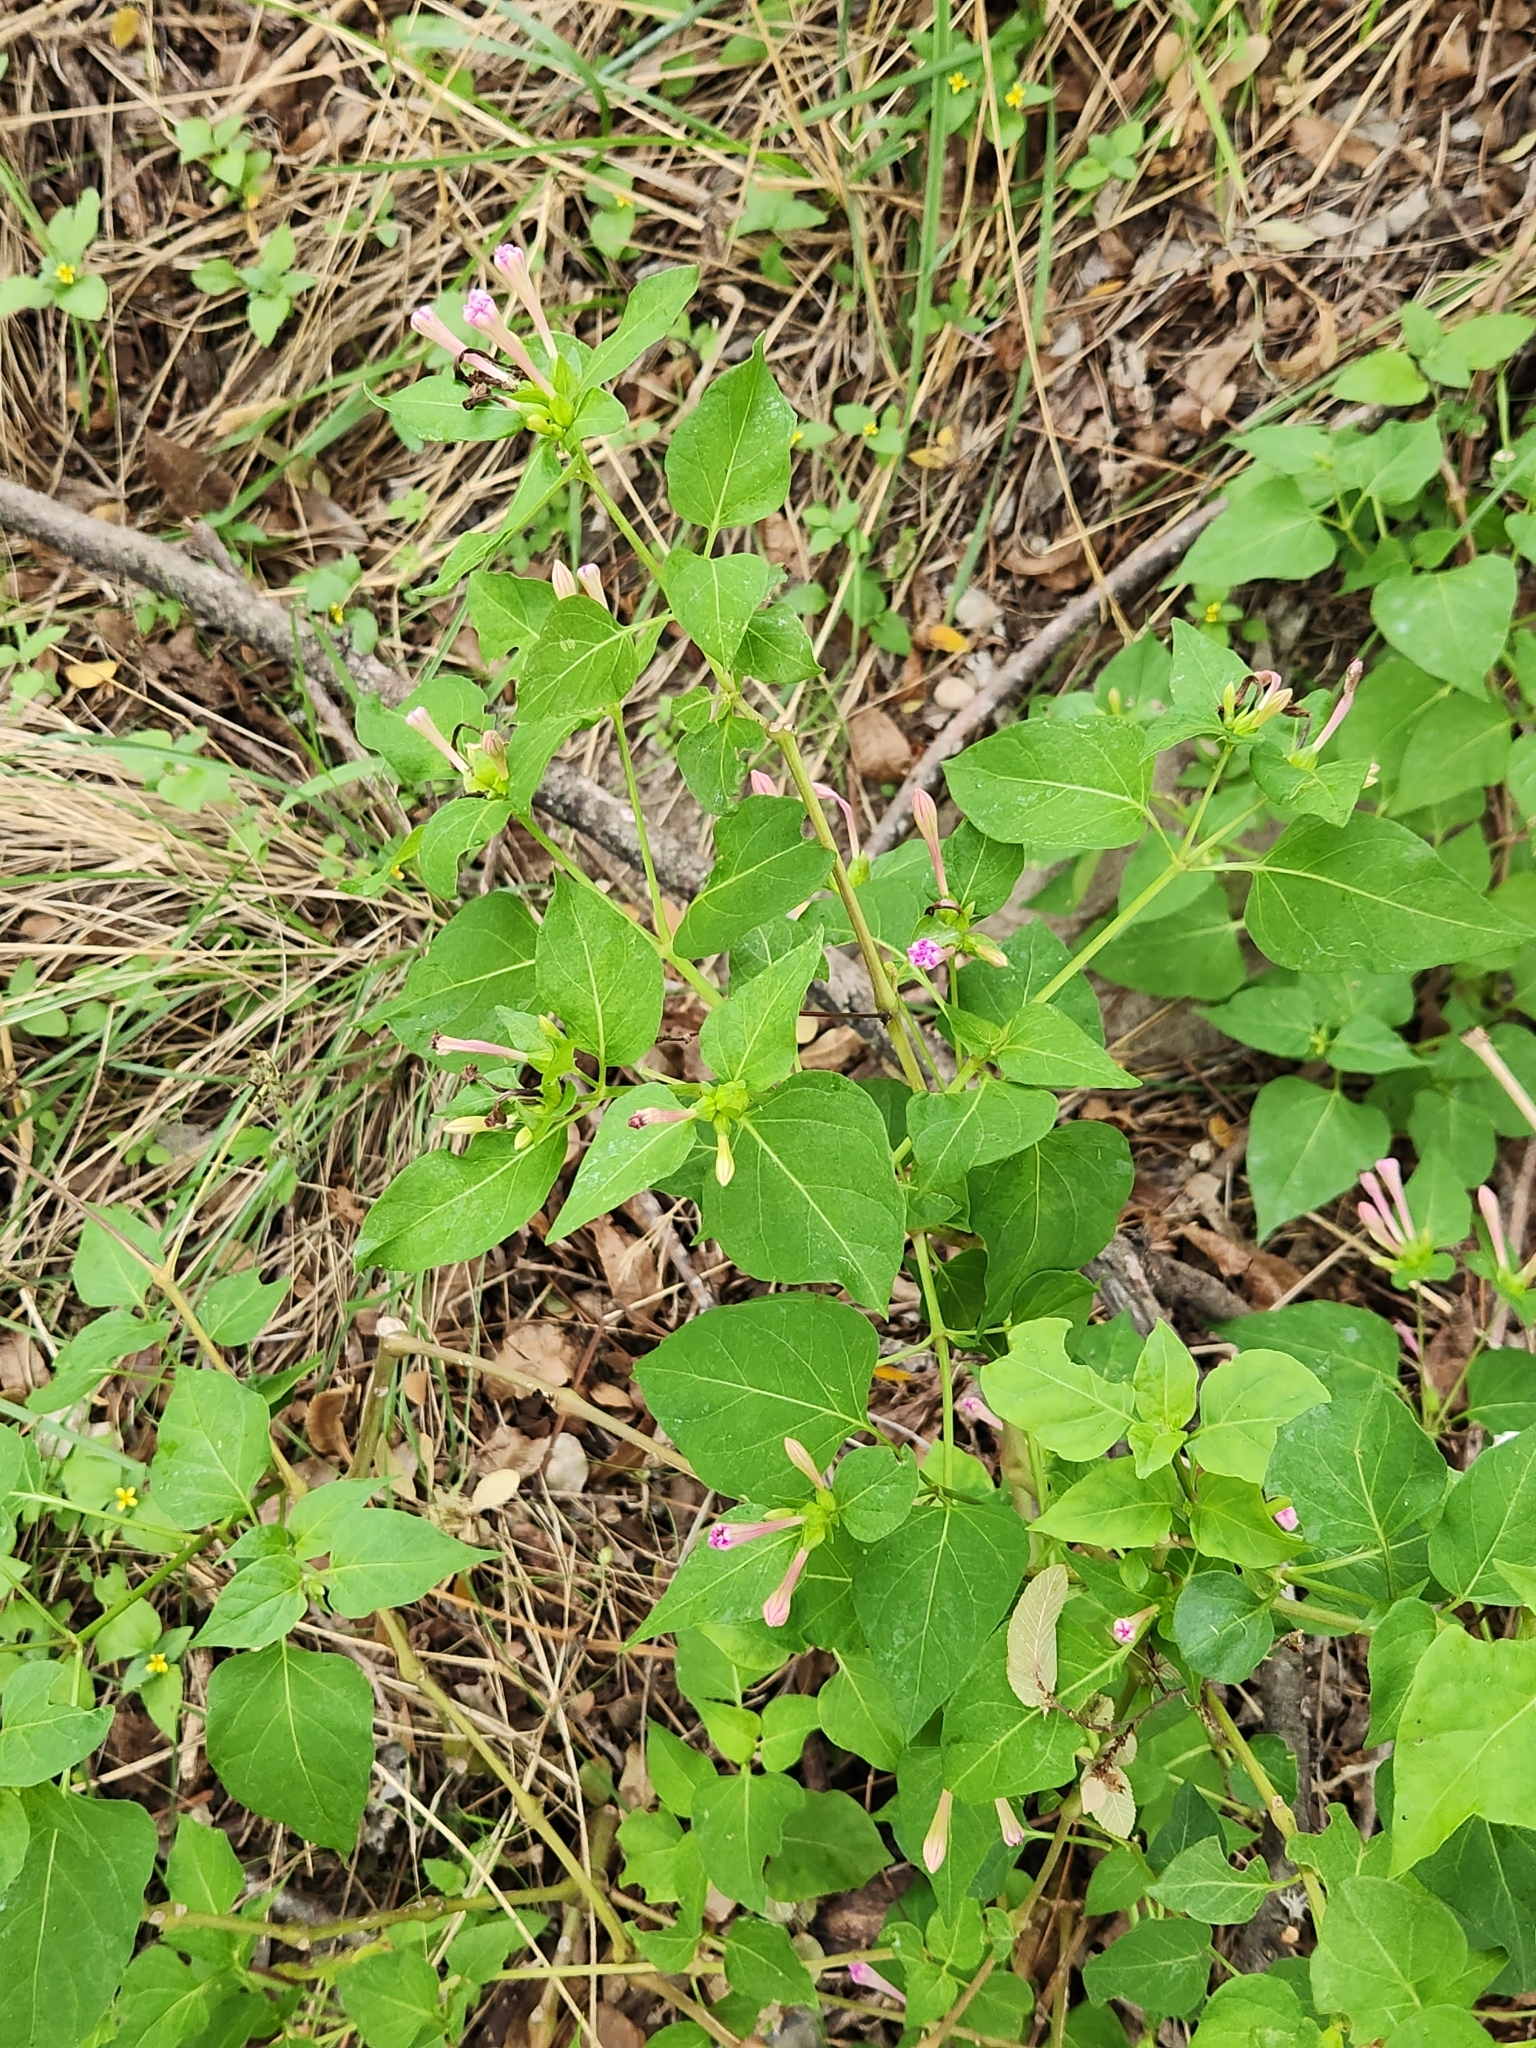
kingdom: Plantae
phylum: Tracheophyta
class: Magnoliopsida
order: Caryophyllales
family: Nyctaginaceae
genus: Mirabilis
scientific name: Mirabilis jalapa
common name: Marvel-of-peru
